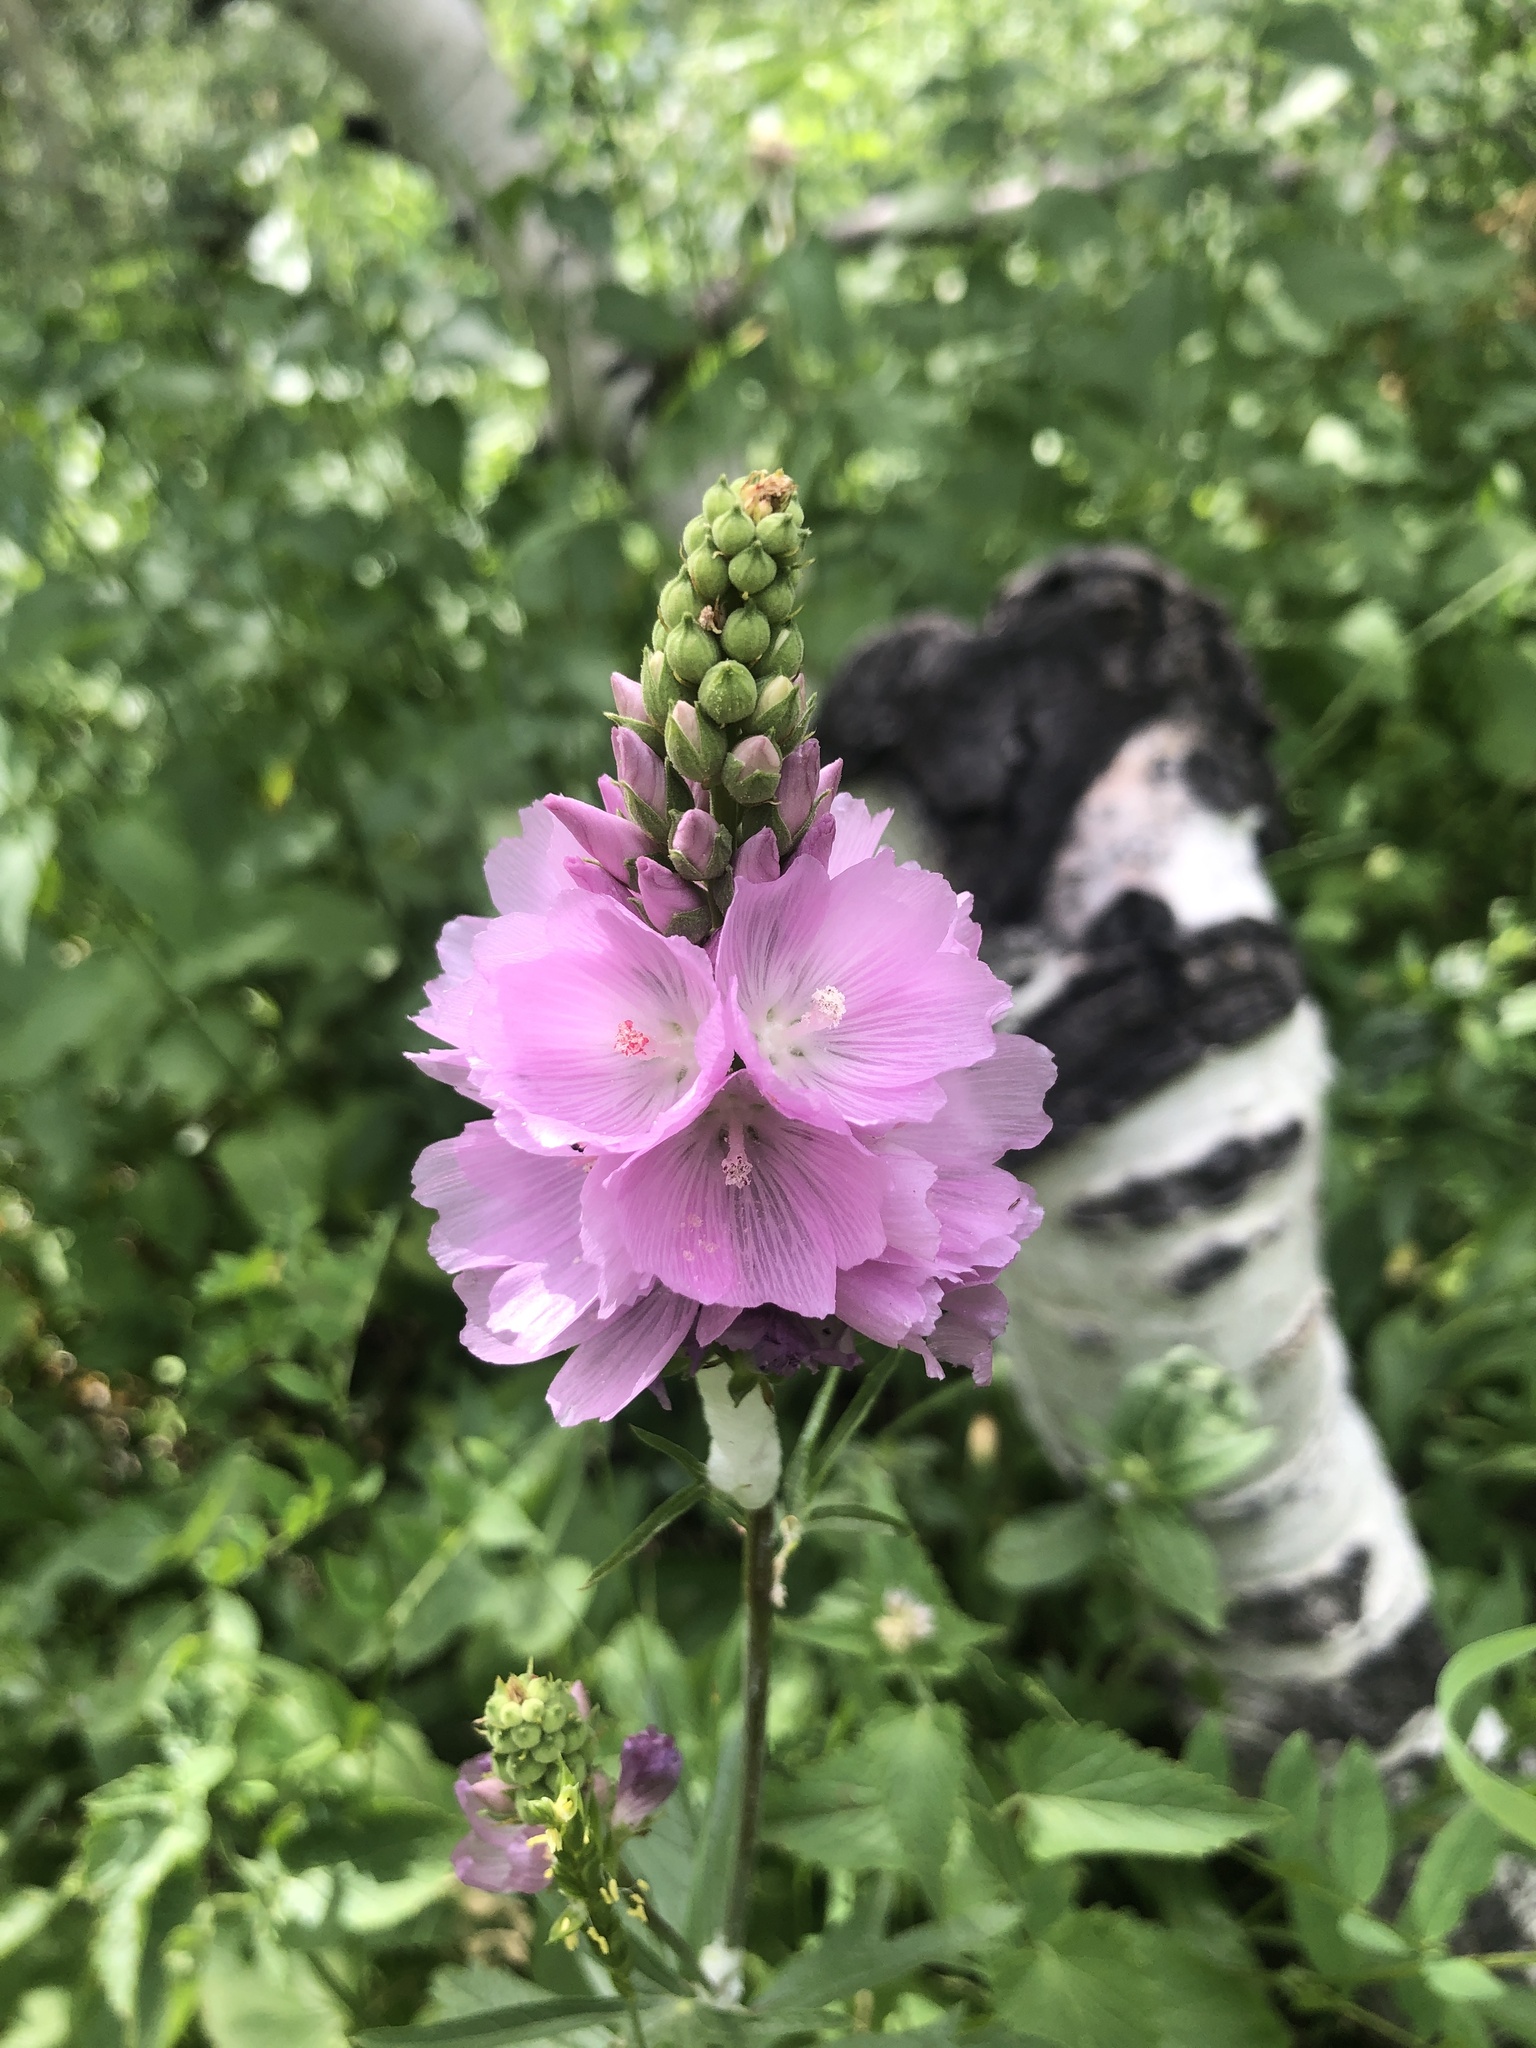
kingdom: Plantae
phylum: Tracheophyta
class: Magnoliopsida
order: Malvales
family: Malvaceae
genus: Sidalcea
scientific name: Sidalcea oregana
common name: Oregon checker-mallow
